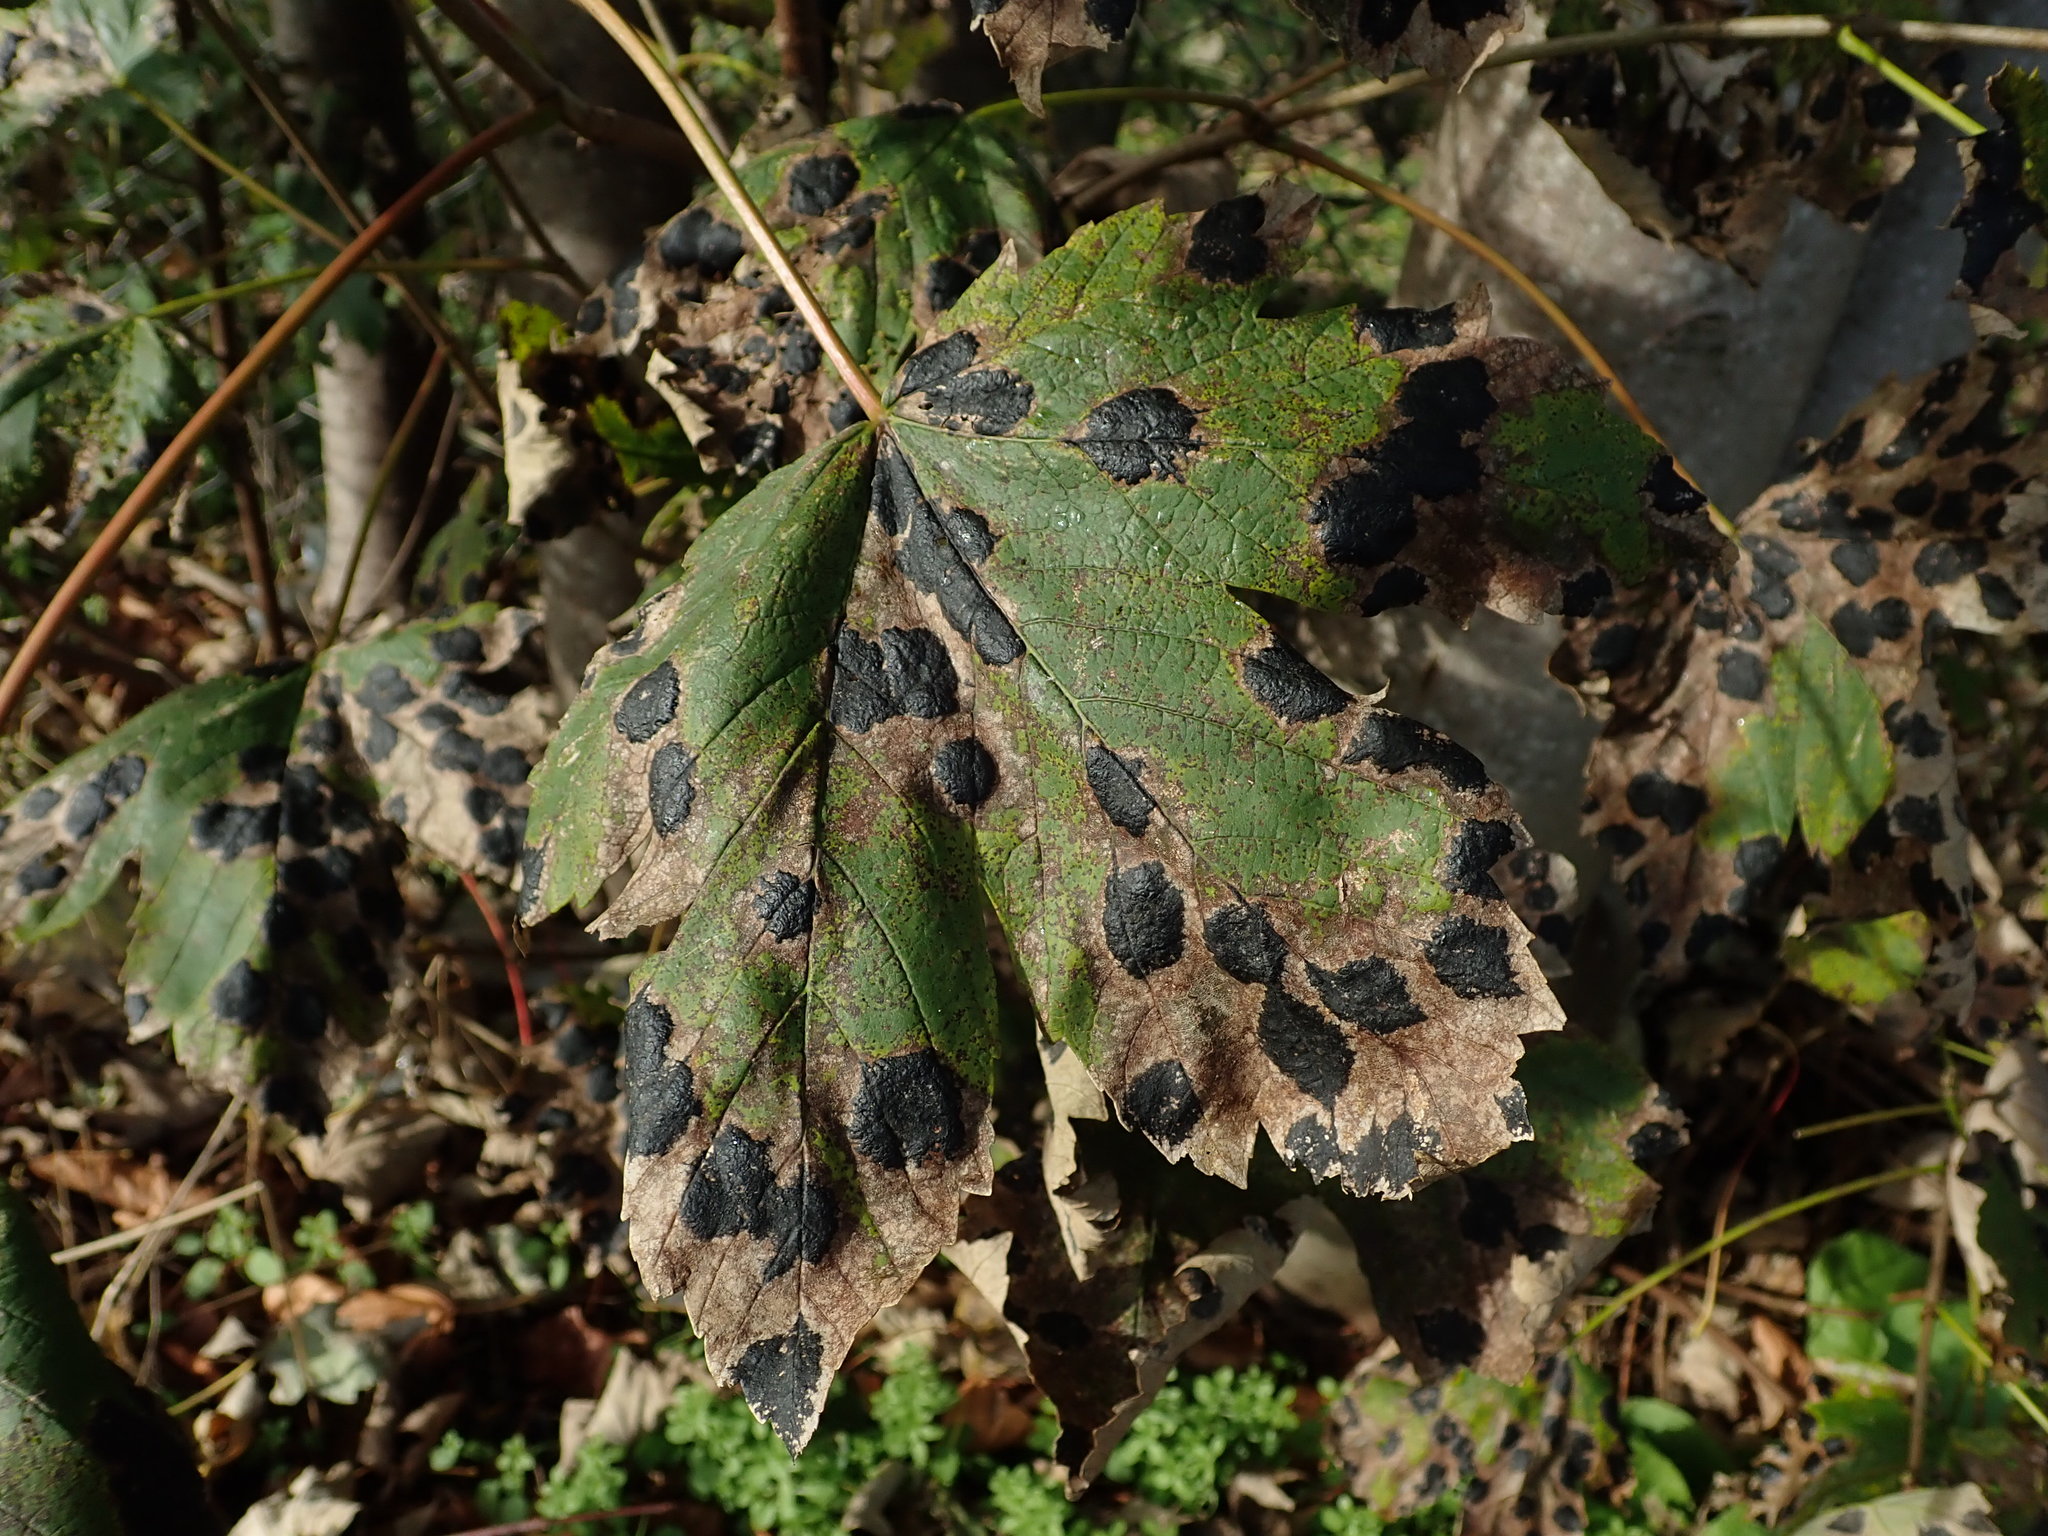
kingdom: Fungi
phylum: Ascomycota
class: Leotiomycetes
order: Rhytismatales
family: Rhytismataceae
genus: Rhytisma
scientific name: Rhytisma acerinum
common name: European tar spot
